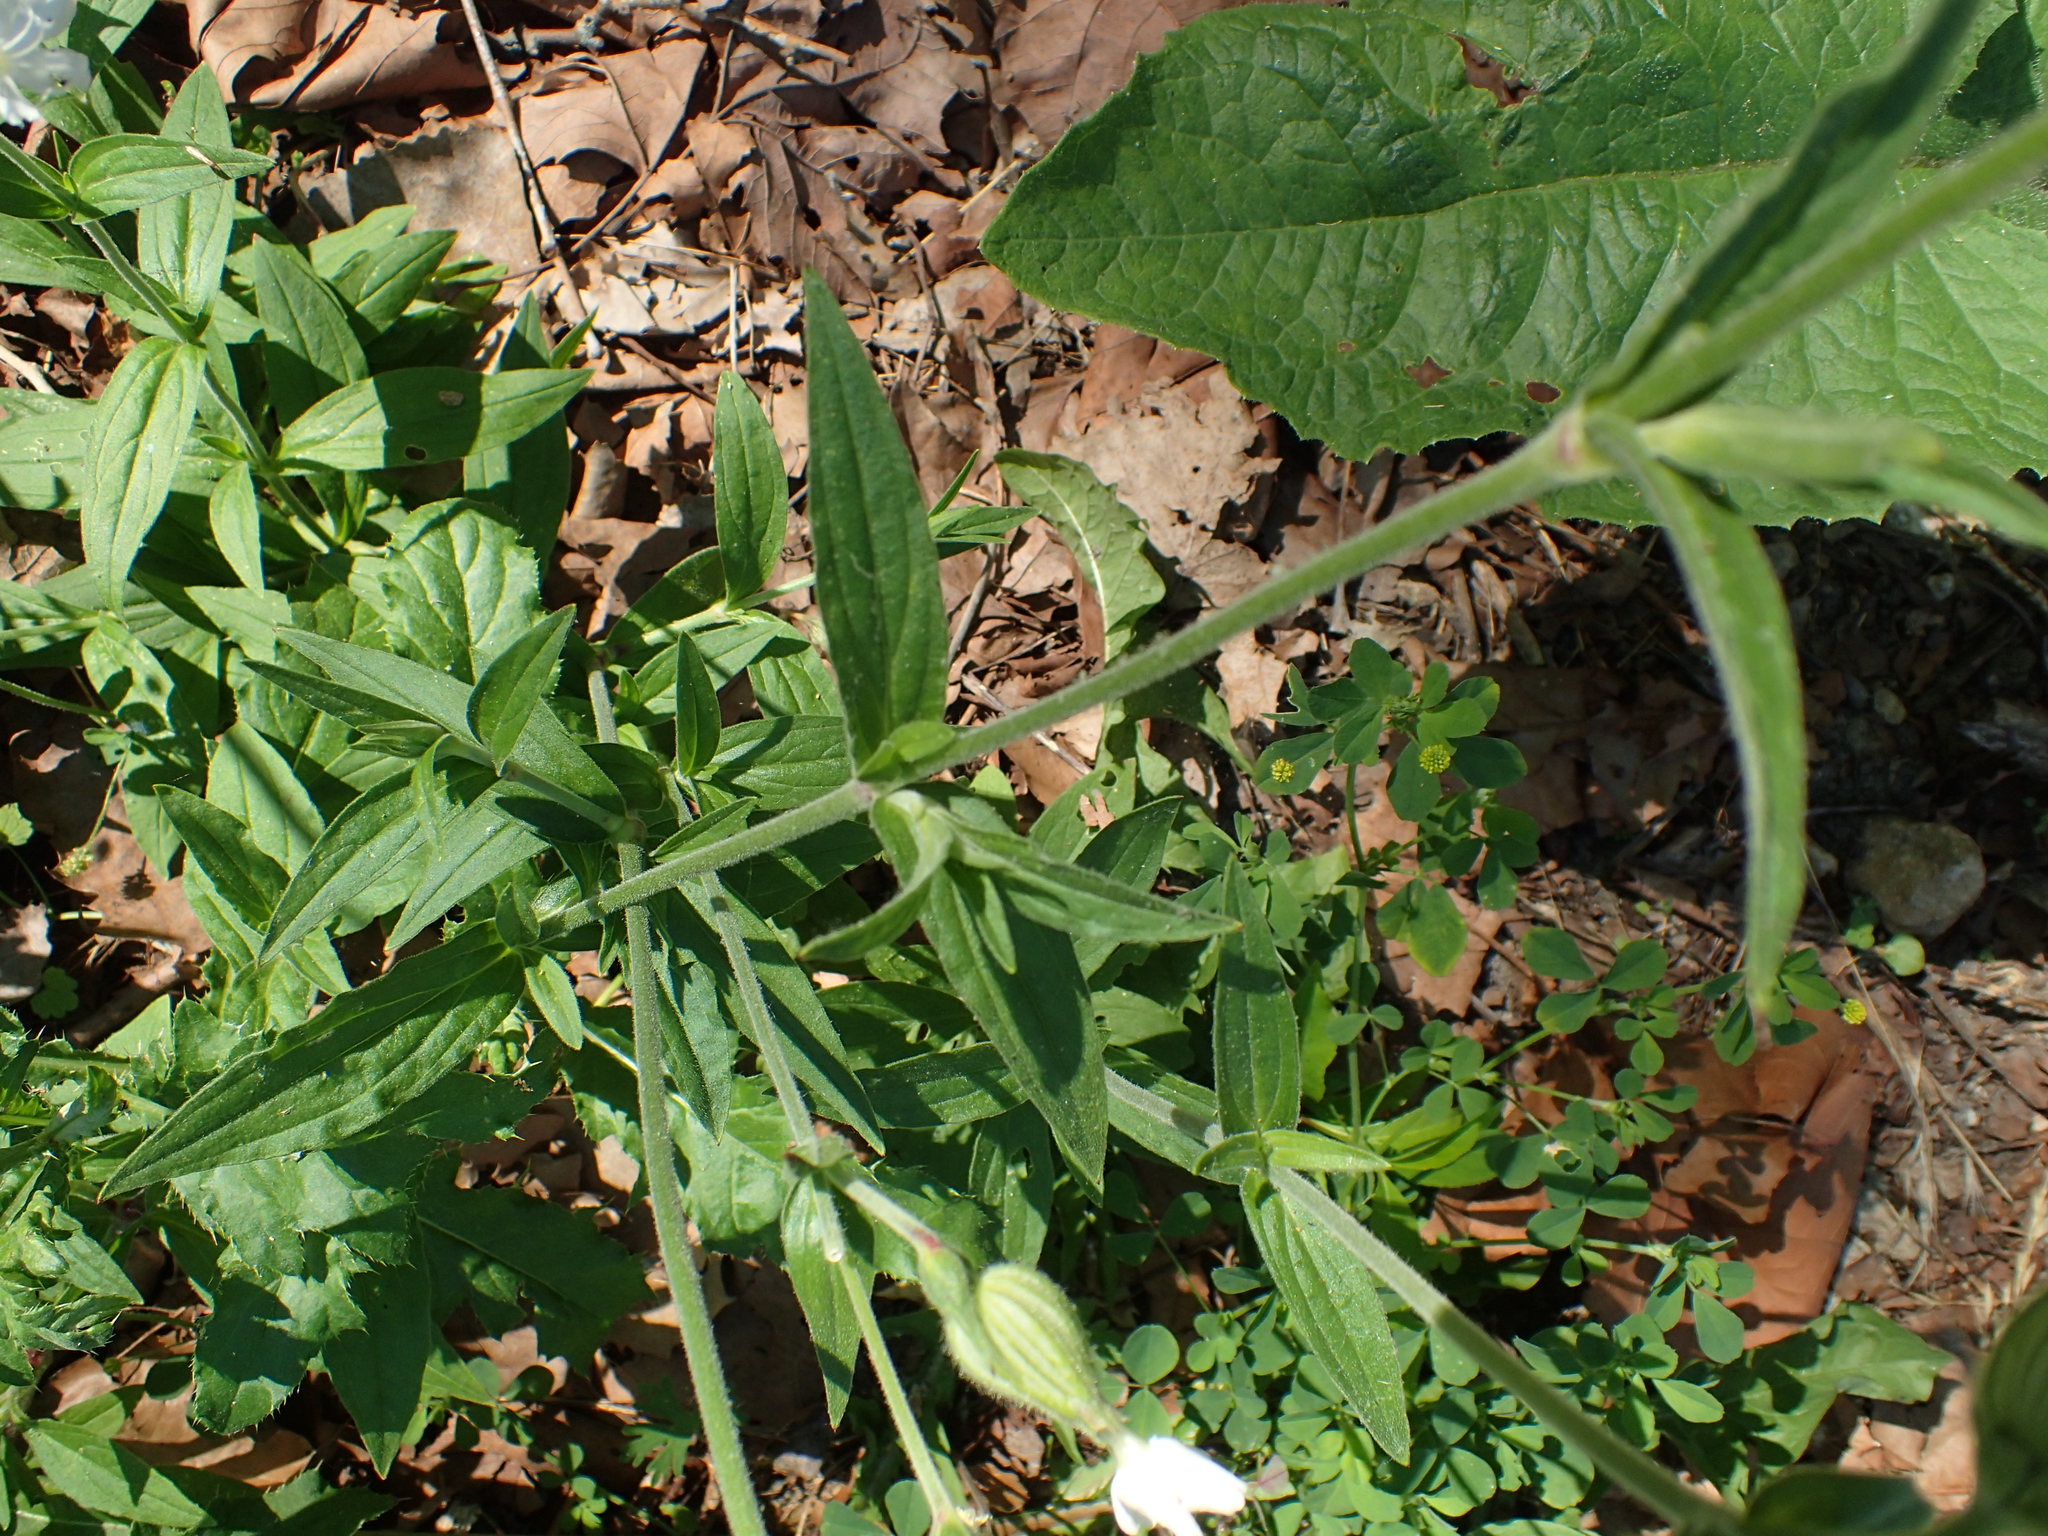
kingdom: Plantae
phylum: Tracheophyta
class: Magnoliopsida
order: Caryophyllales
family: Caryophyllaceae
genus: Silene
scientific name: Silene latifolia
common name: White campion
